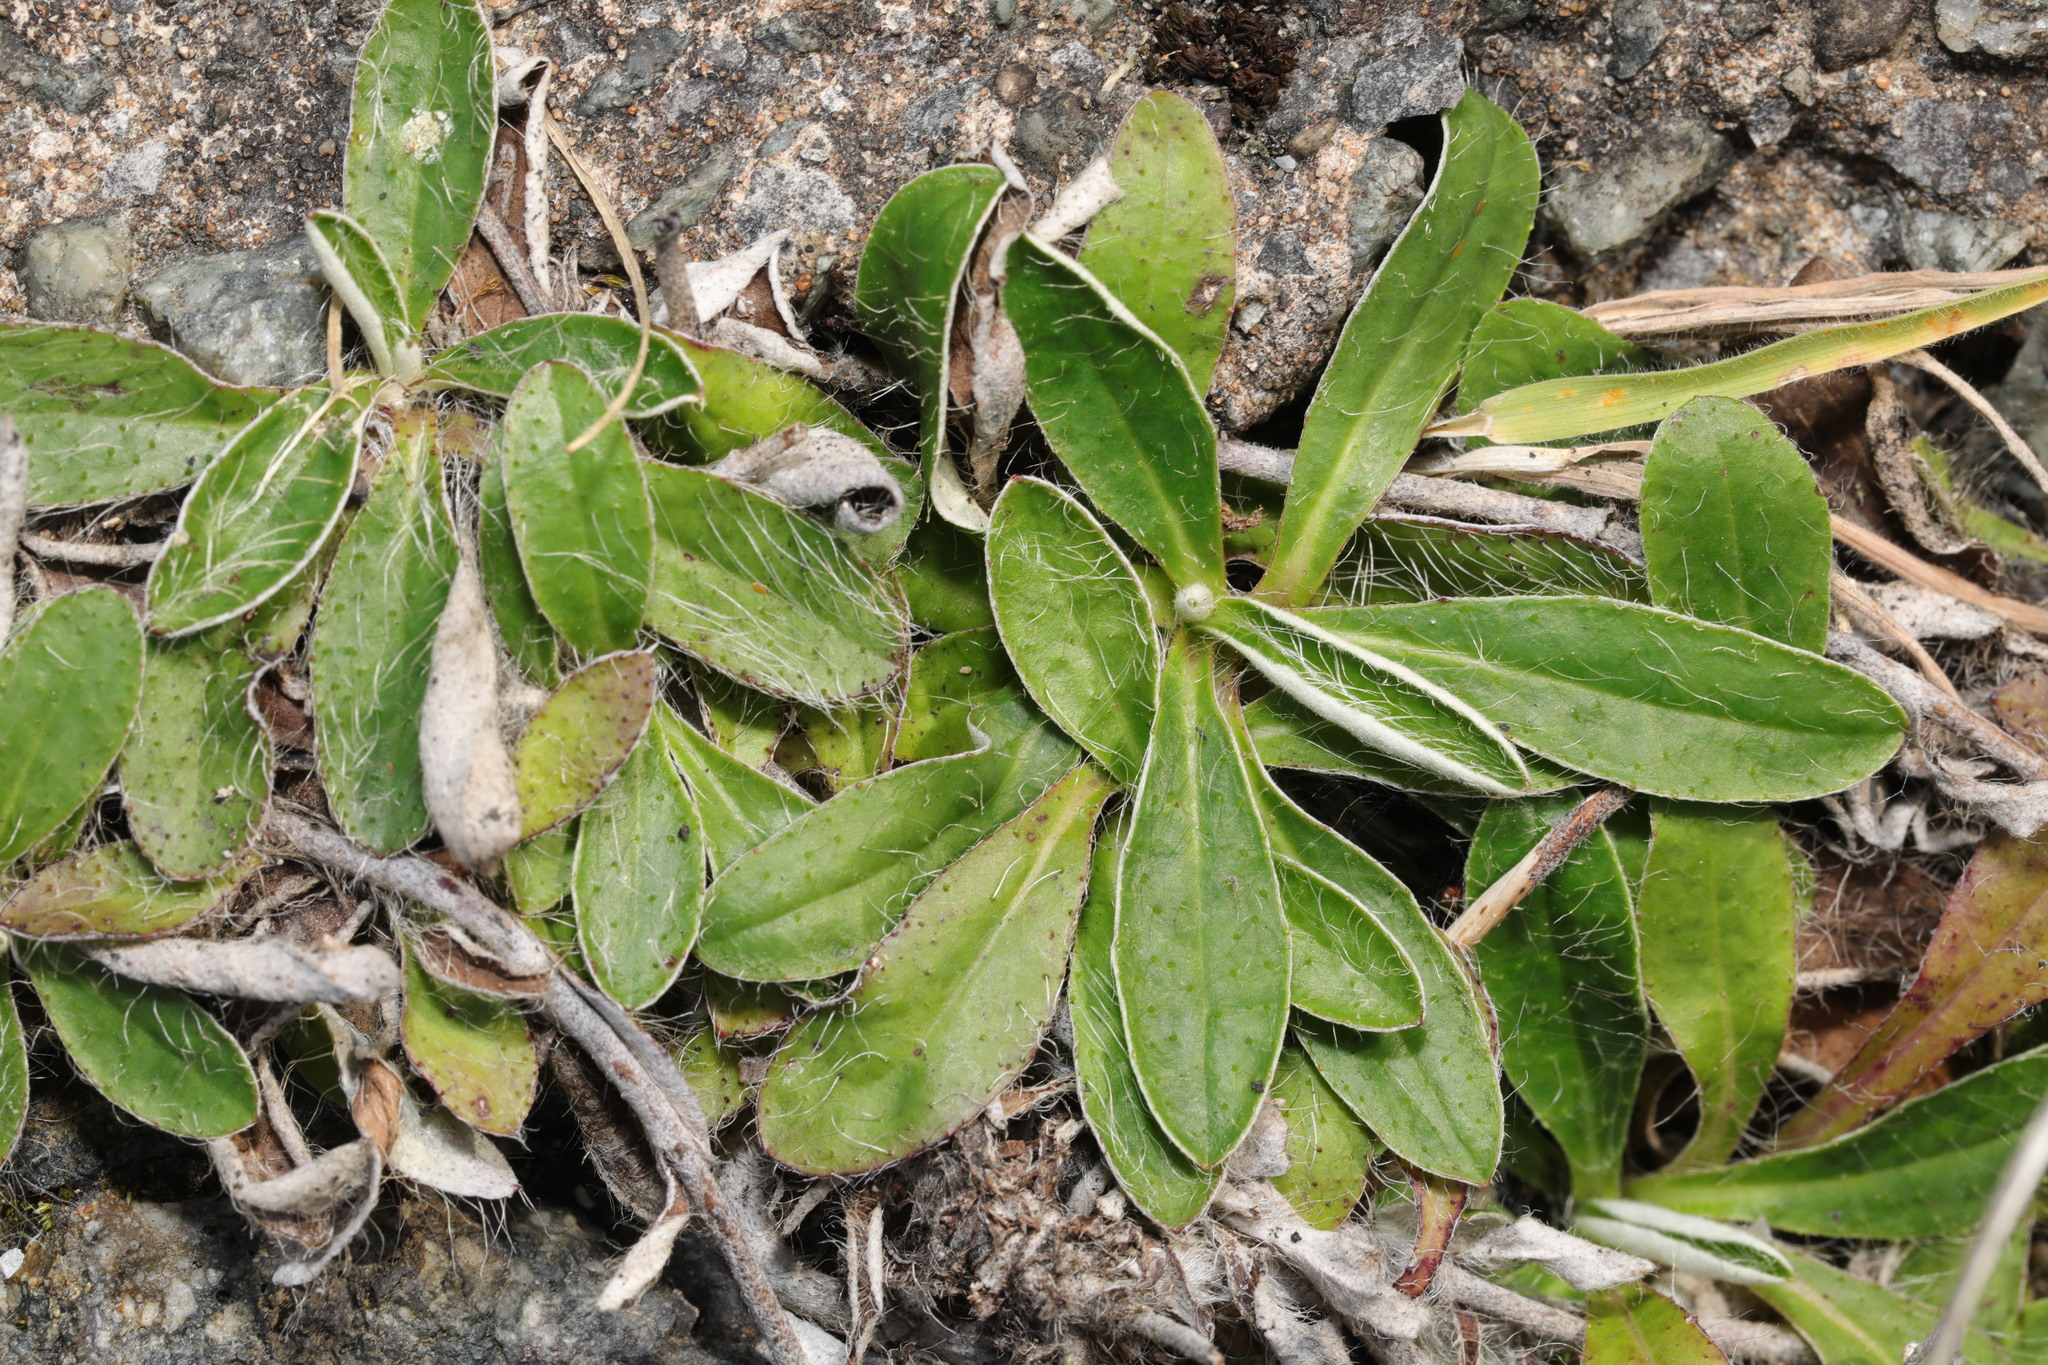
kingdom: Plantae
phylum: Tracheophyta
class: Magnoliopsida
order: Asterales
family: Asteraceae
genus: Pilosella
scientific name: Pilosella officinarum
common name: Mouse-ear hawkweed
